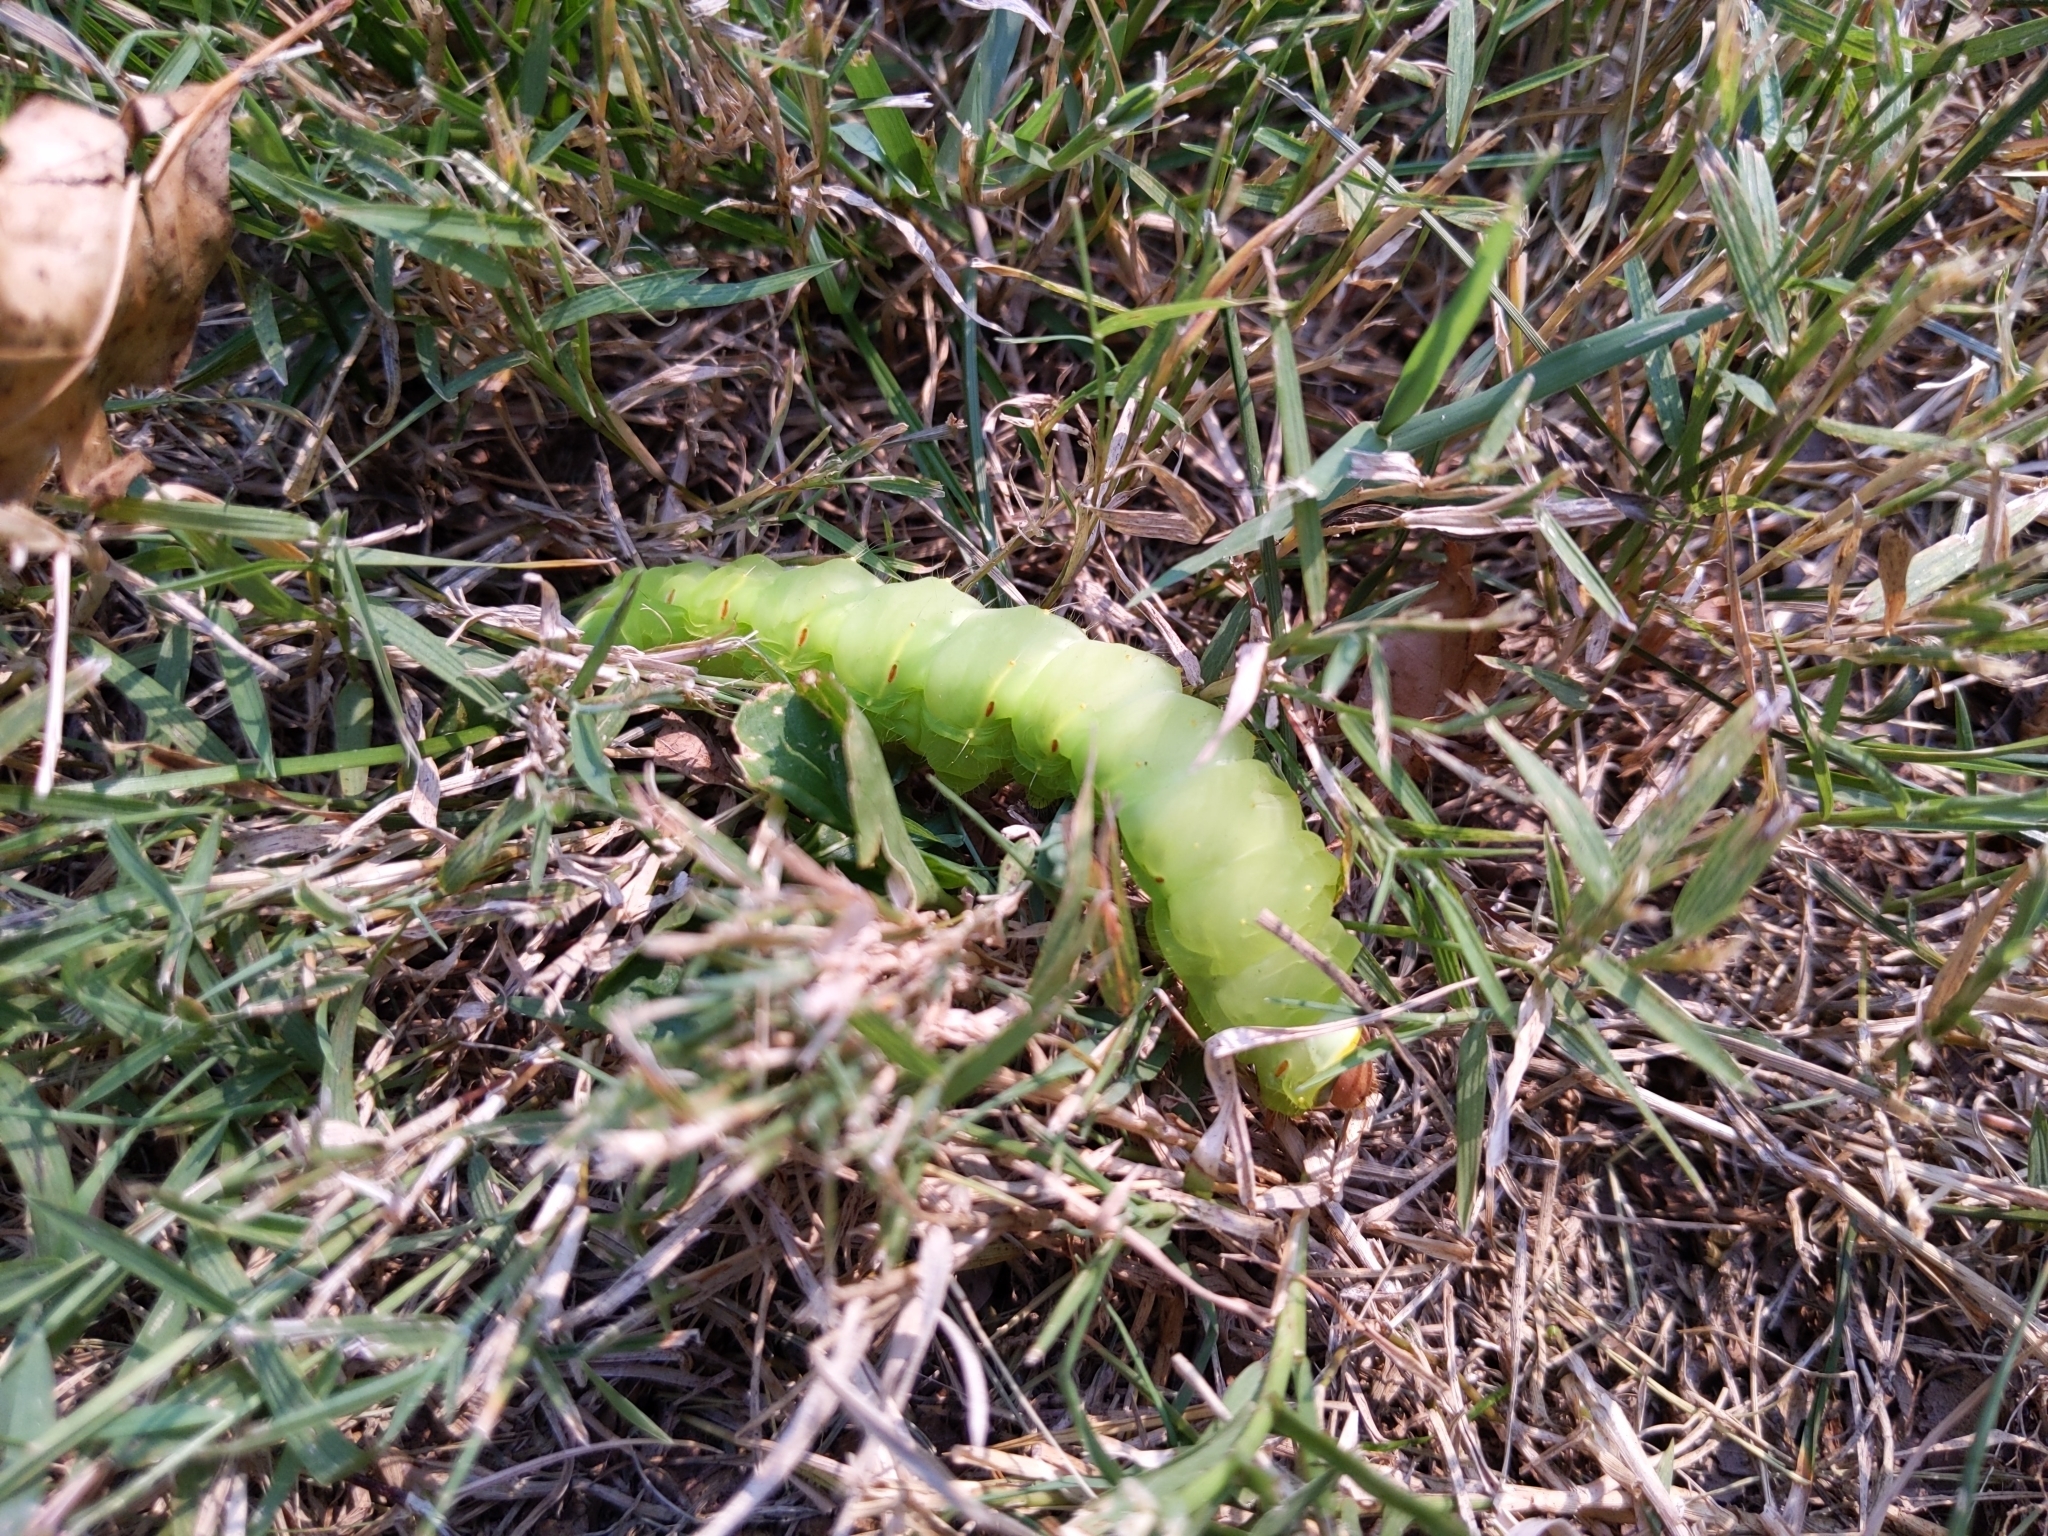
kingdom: Animalia
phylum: Arthropoda
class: Insecta
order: Lepidoptera
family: Saturniidae
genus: Antheraea
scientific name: Antheraea polyphemus
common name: Polyphemus moth
